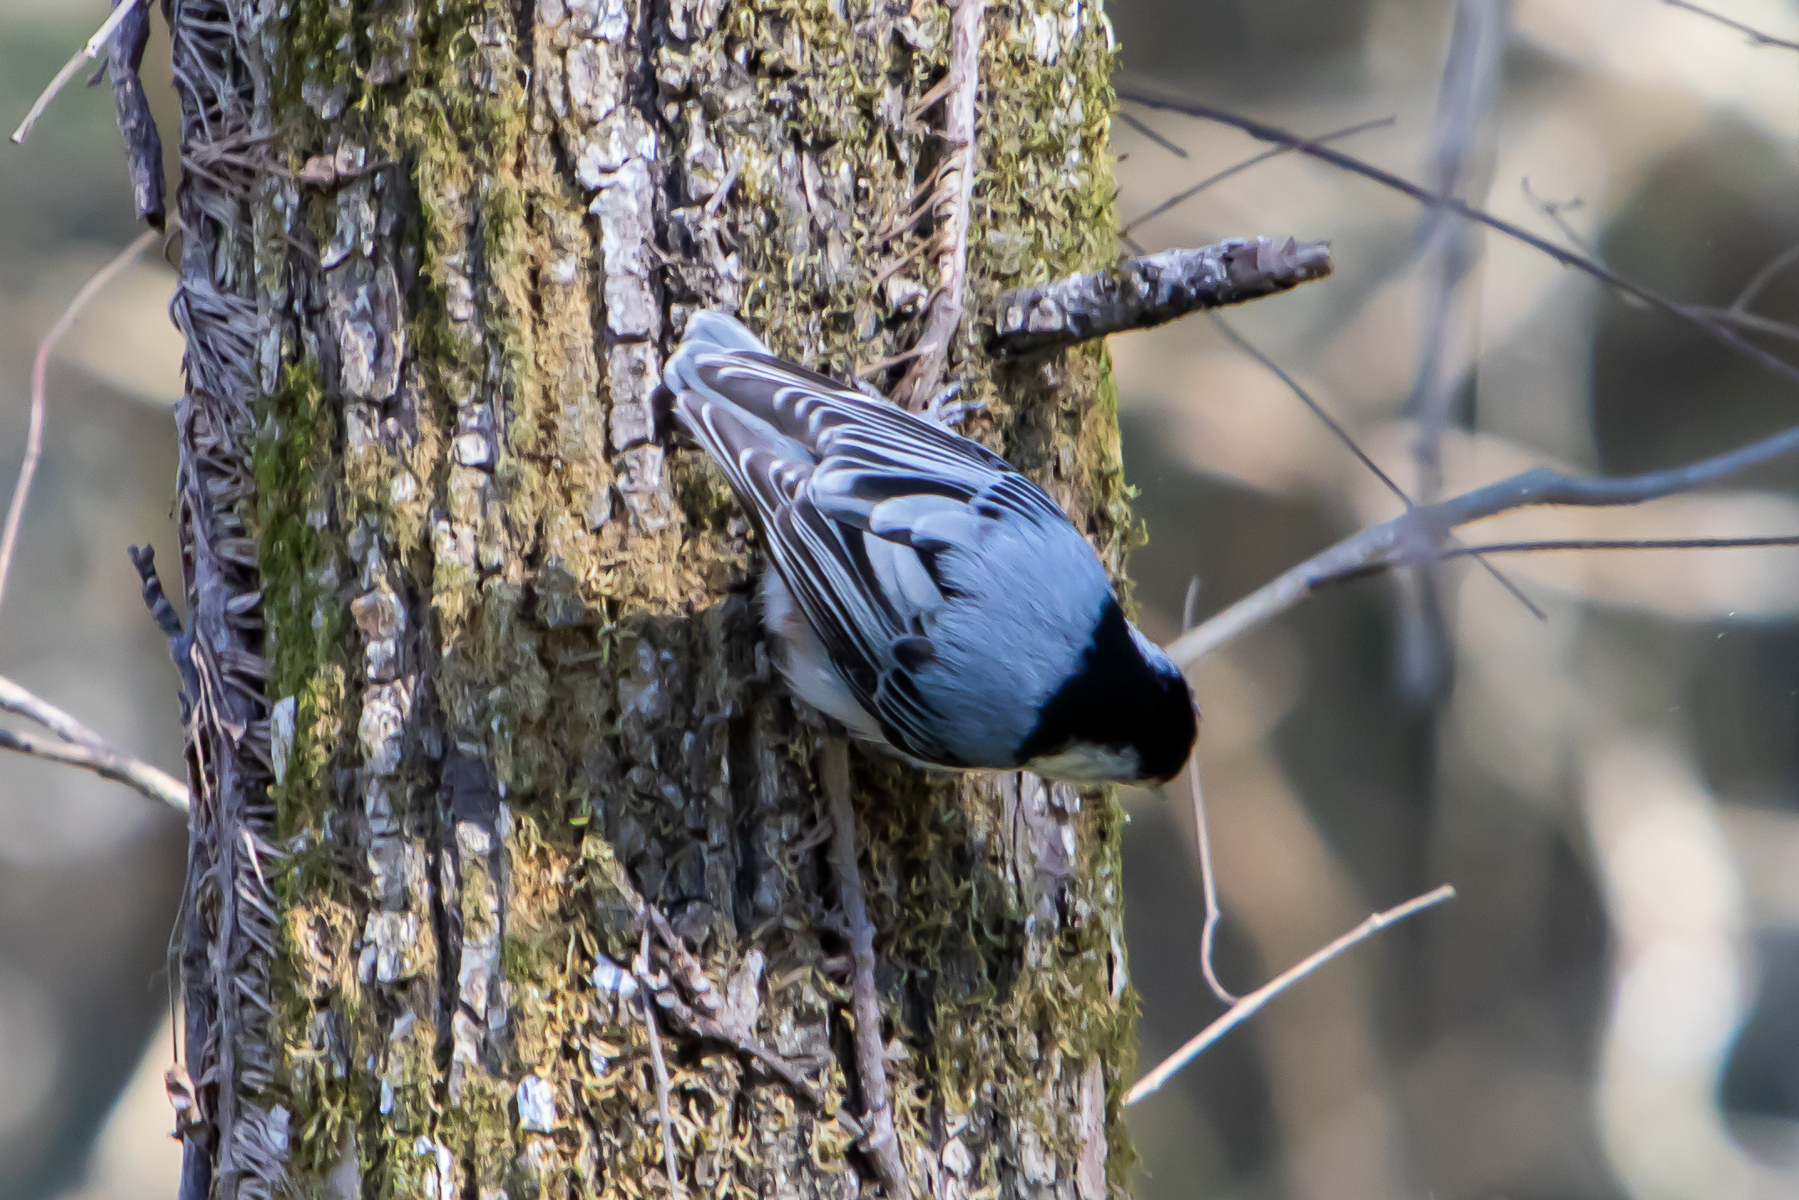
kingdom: Animalia
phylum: Chordata
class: Aves
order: Passeriformes
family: Sittidae
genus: Sitta
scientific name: Sitta carolinensis
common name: White-breasted nuthatch
